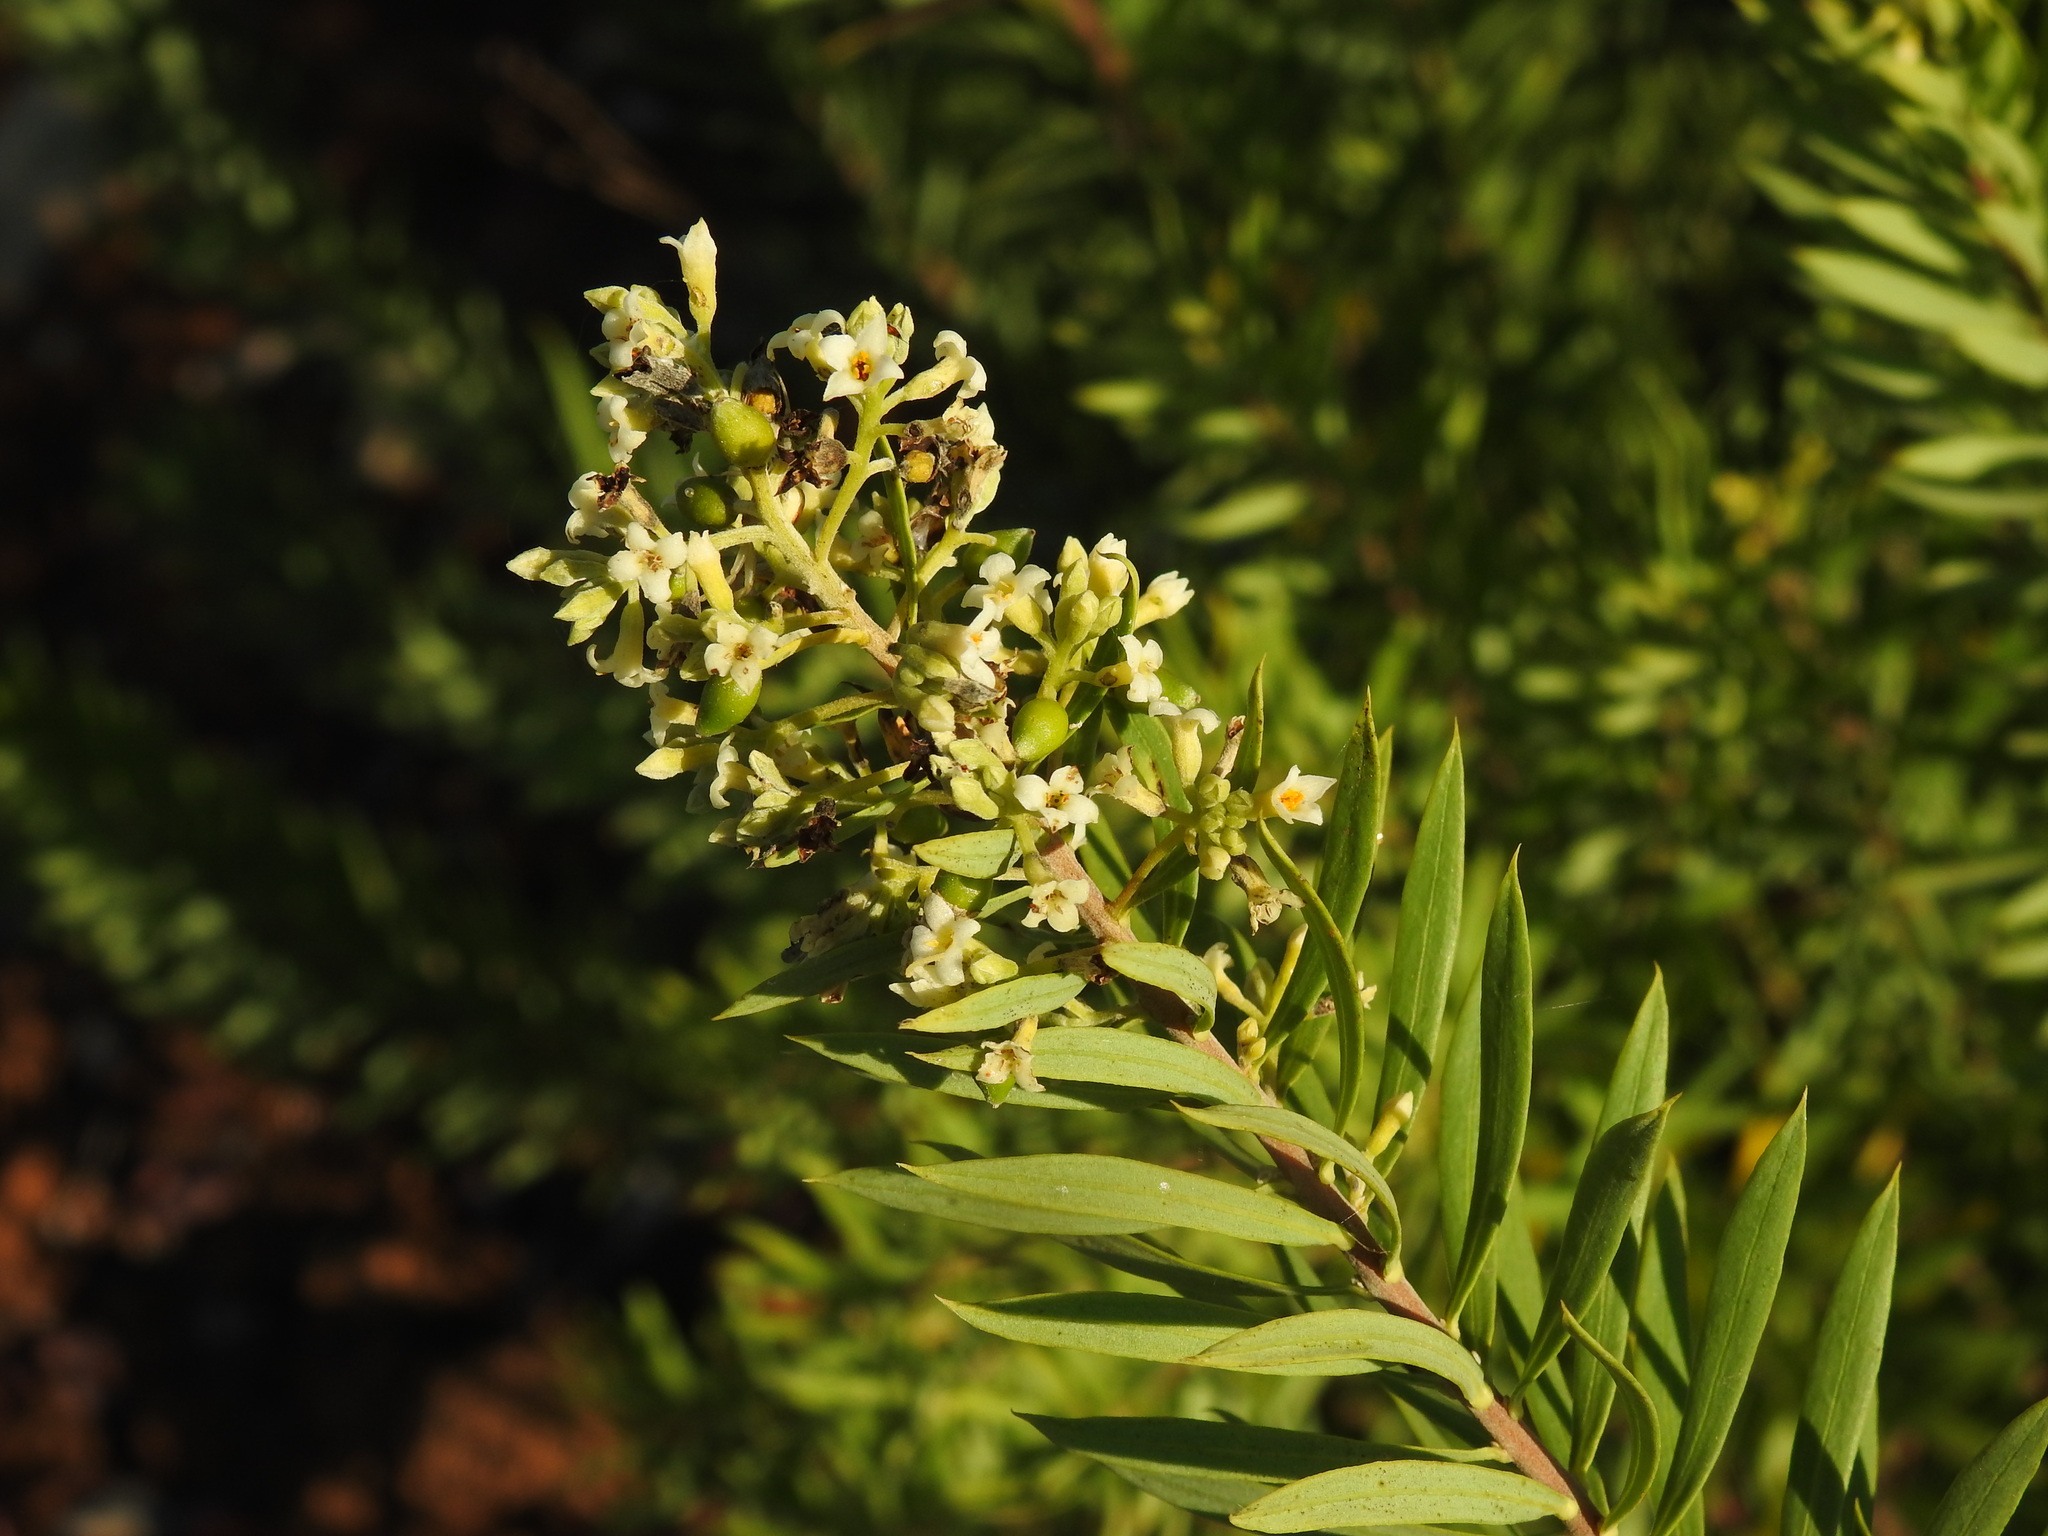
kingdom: Plantae
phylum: Tracheophyta
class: Magnoliopsida
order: Malvales
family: Thymelaeaceae
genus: Daphne
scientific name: Daphne gnidium
